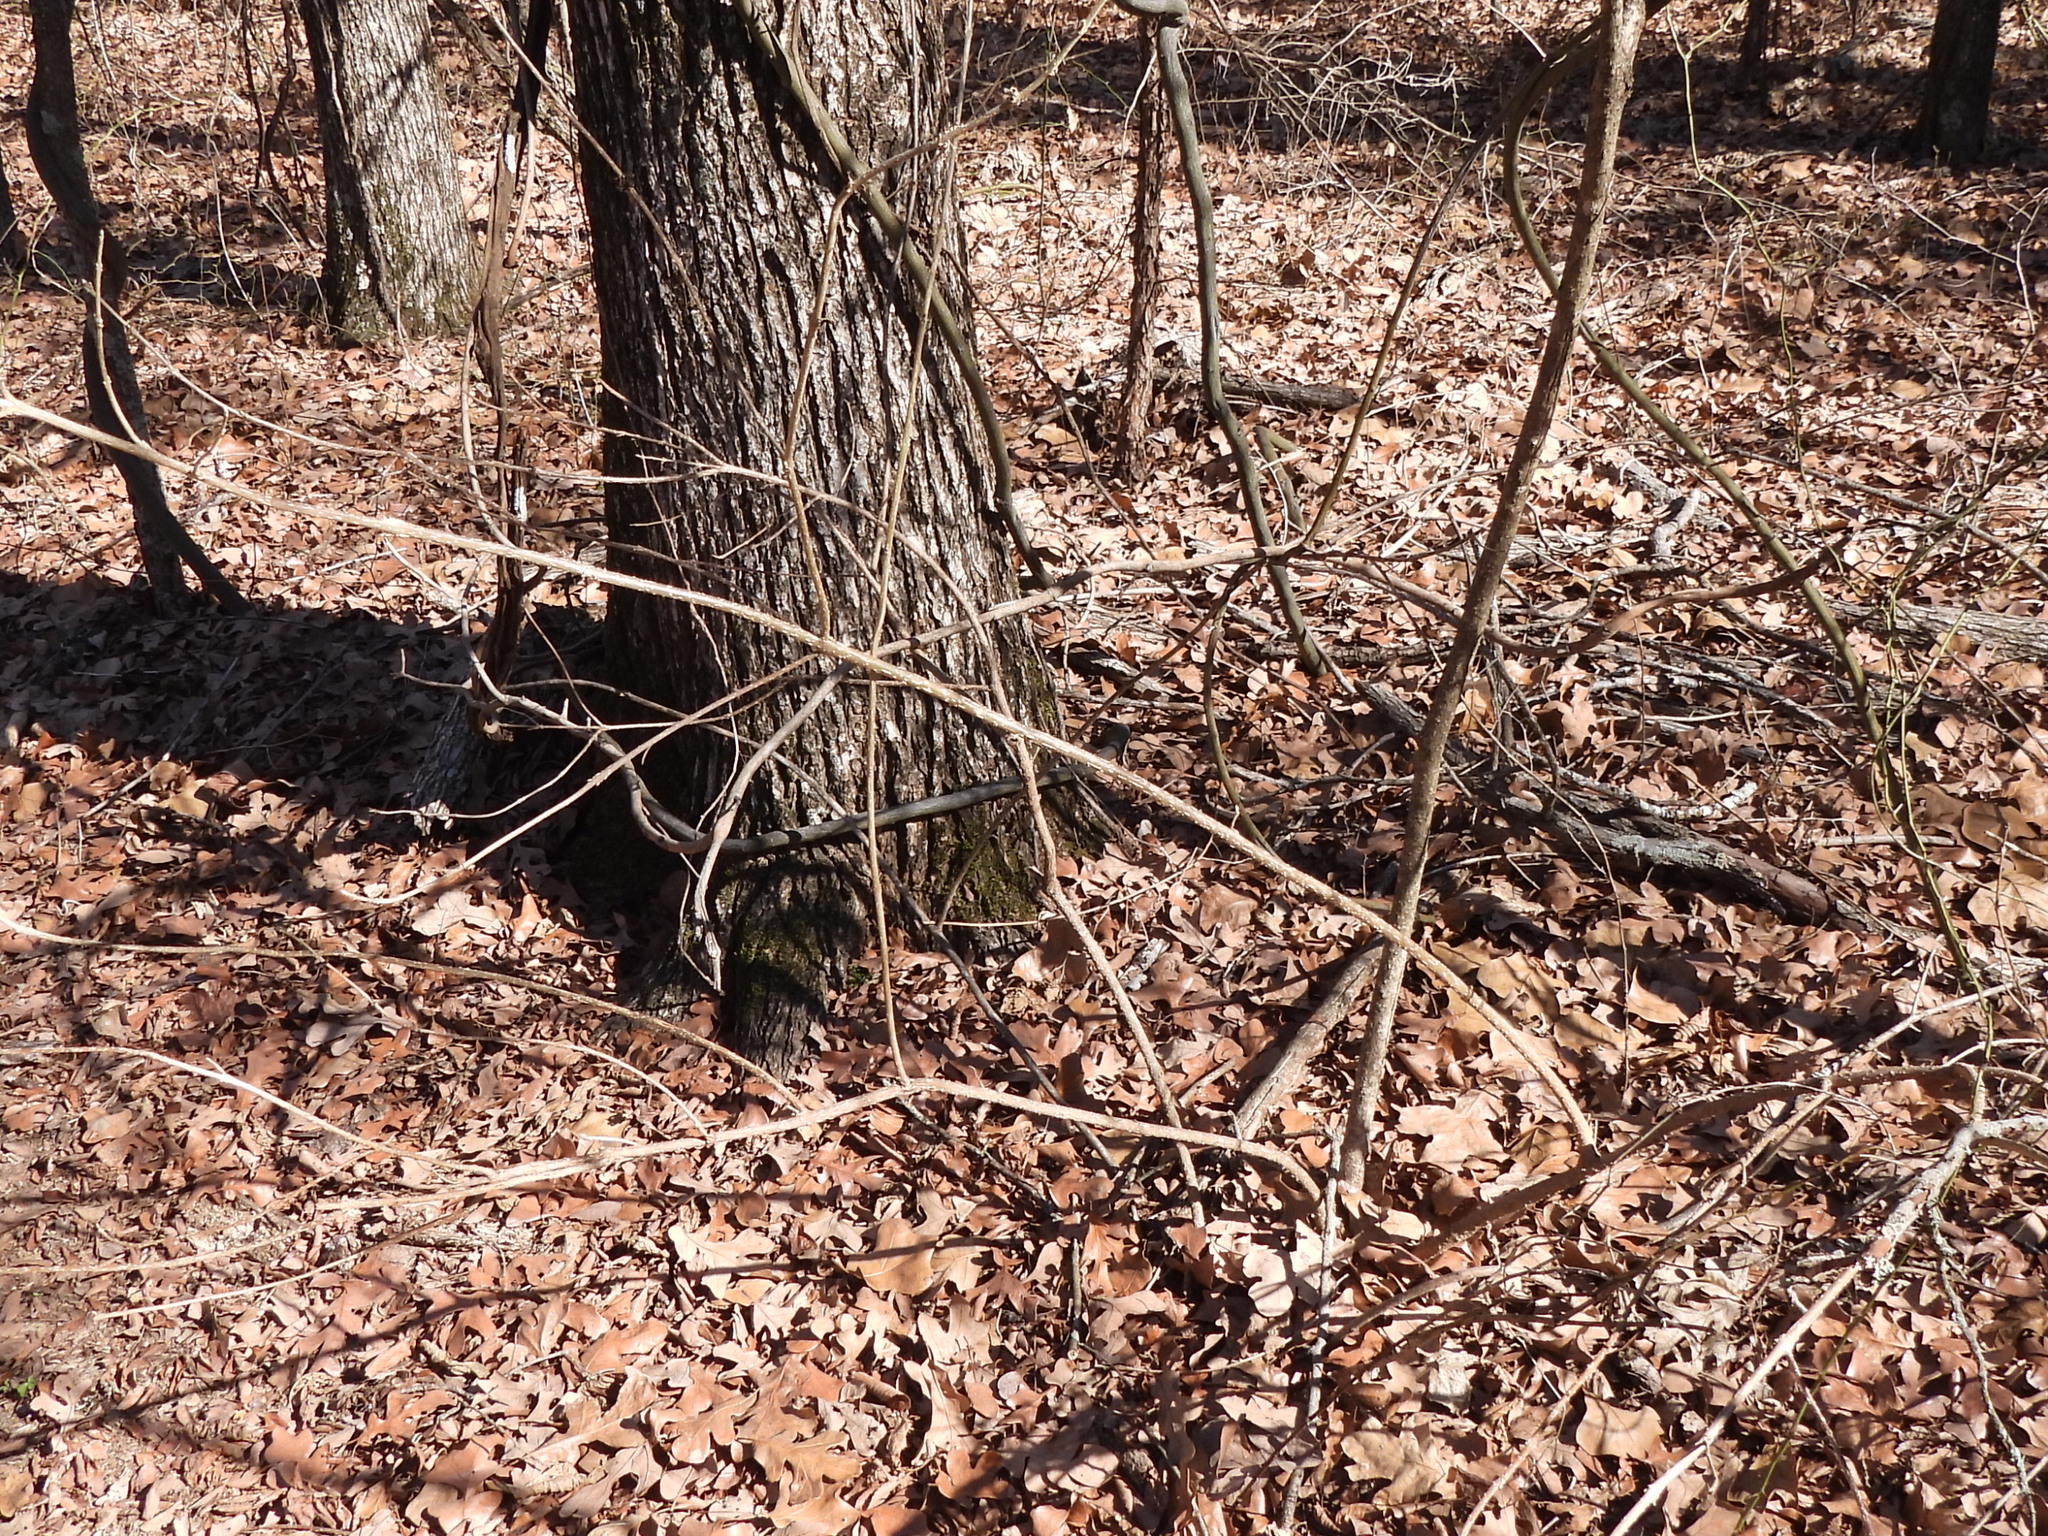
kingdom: Plantae
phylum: Tracheophyta
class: Magnoliopsida
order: Lamiales
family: Lamiaceae
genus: Callicarpa
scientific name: Callicarpa americana
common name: American beautyberry
